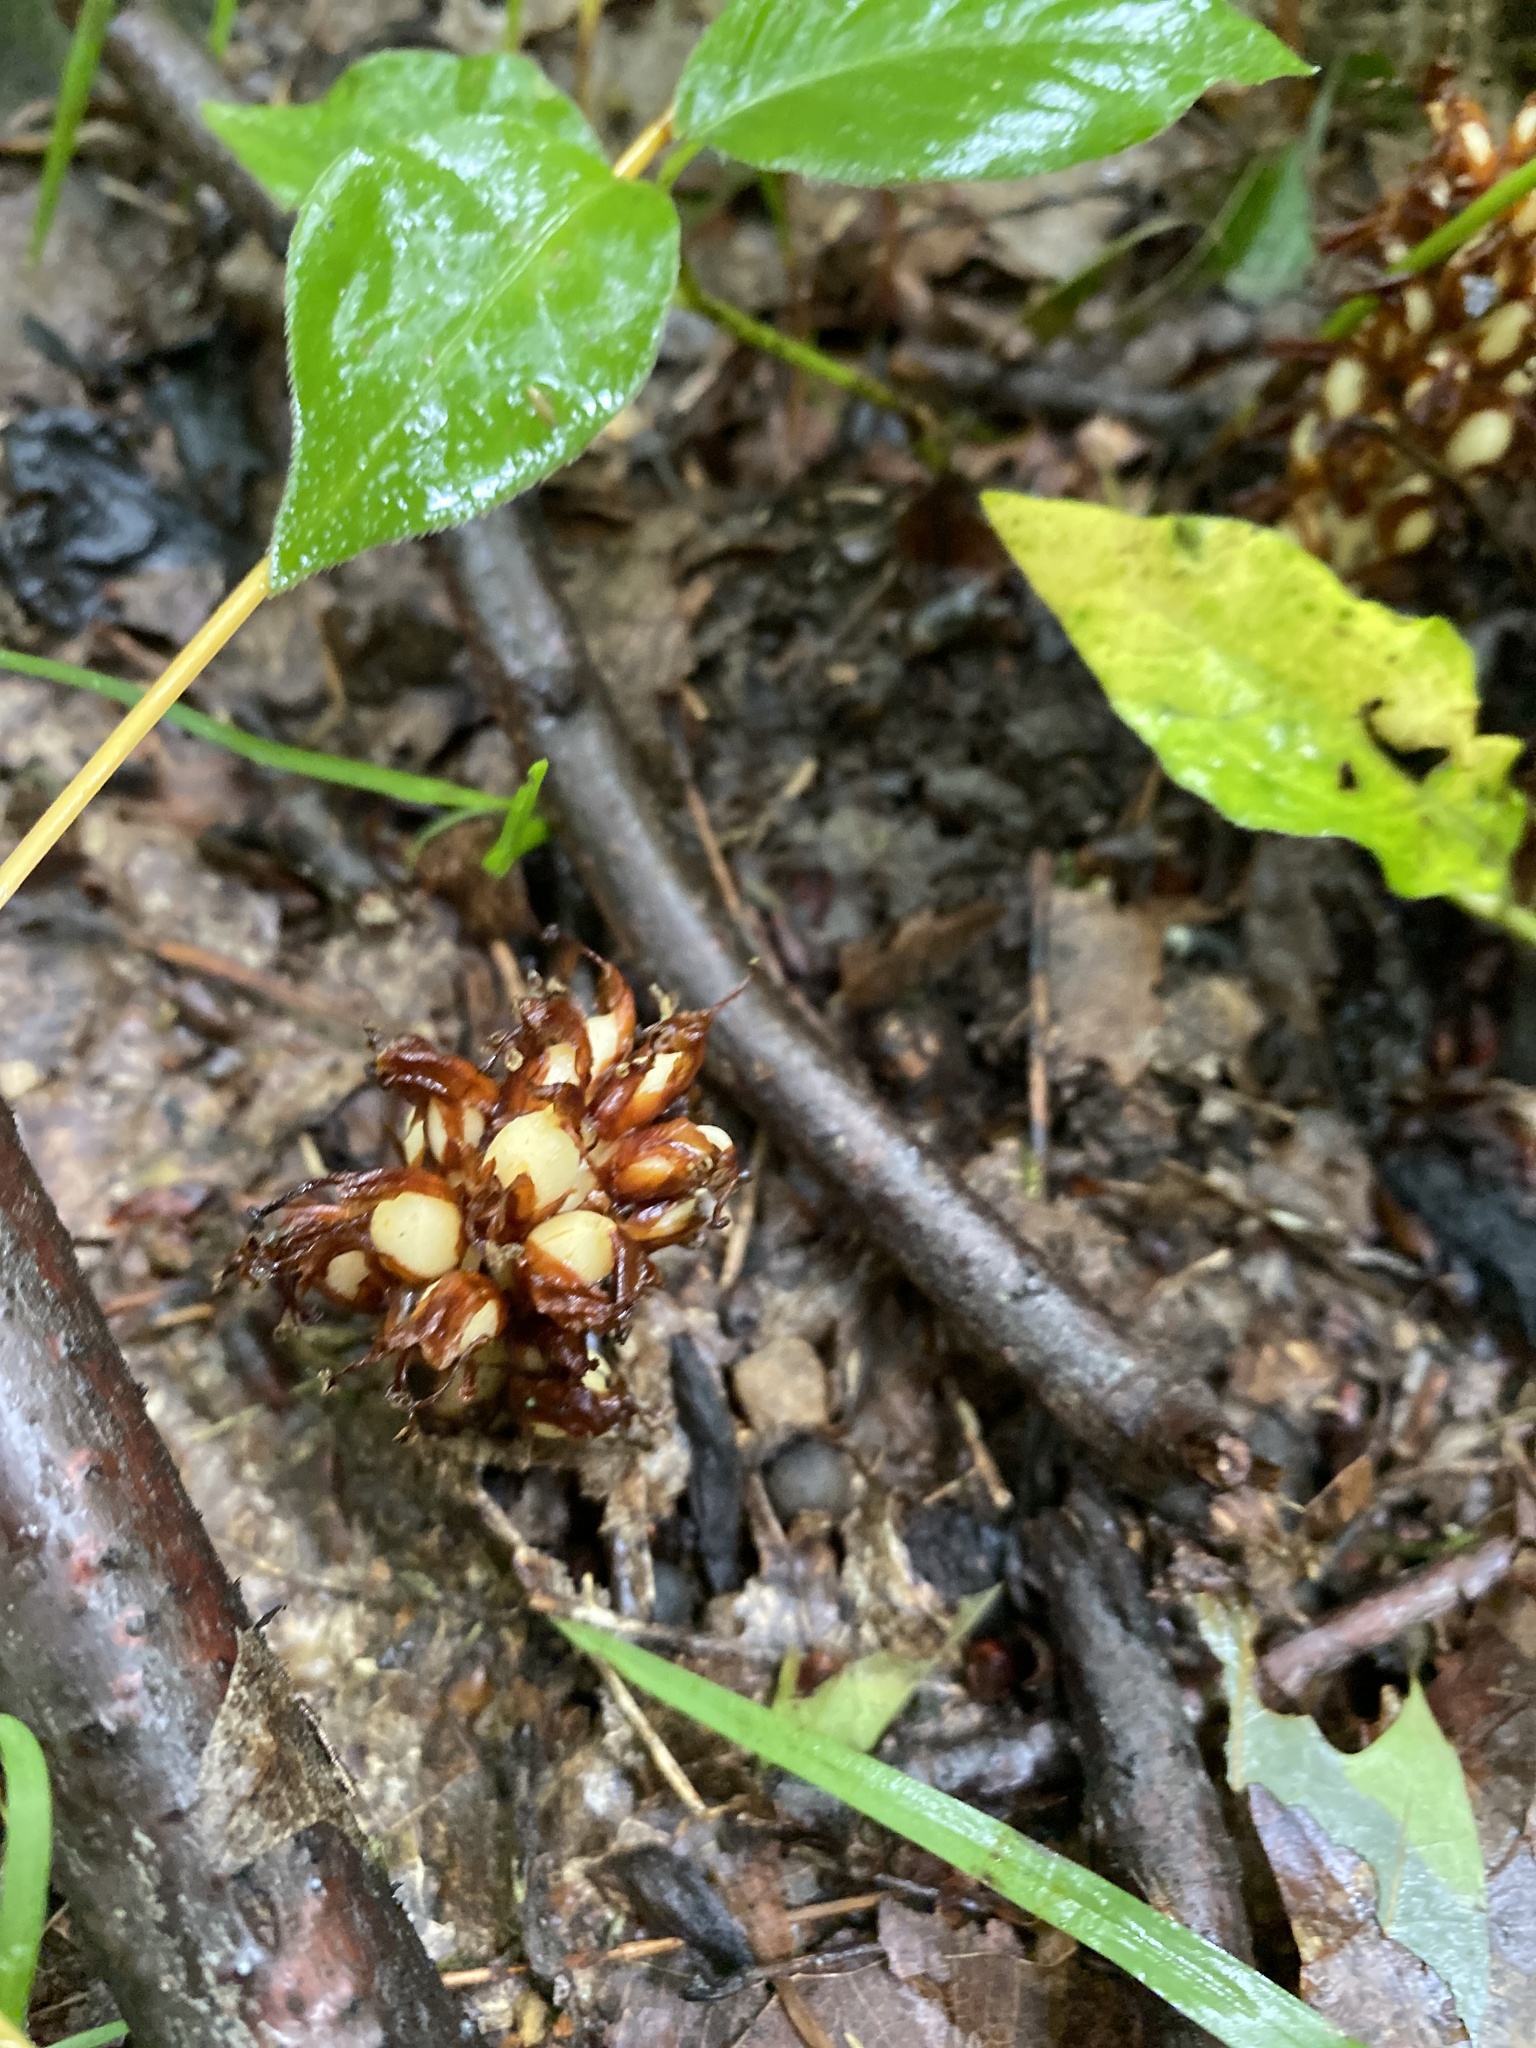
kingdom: Plantae
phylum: Tracheophyta
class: Magnoliopsida
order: Lamiales
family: Orobanchaceae
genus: Conopholis
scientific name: Conopholis americana
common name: American cancer-root
